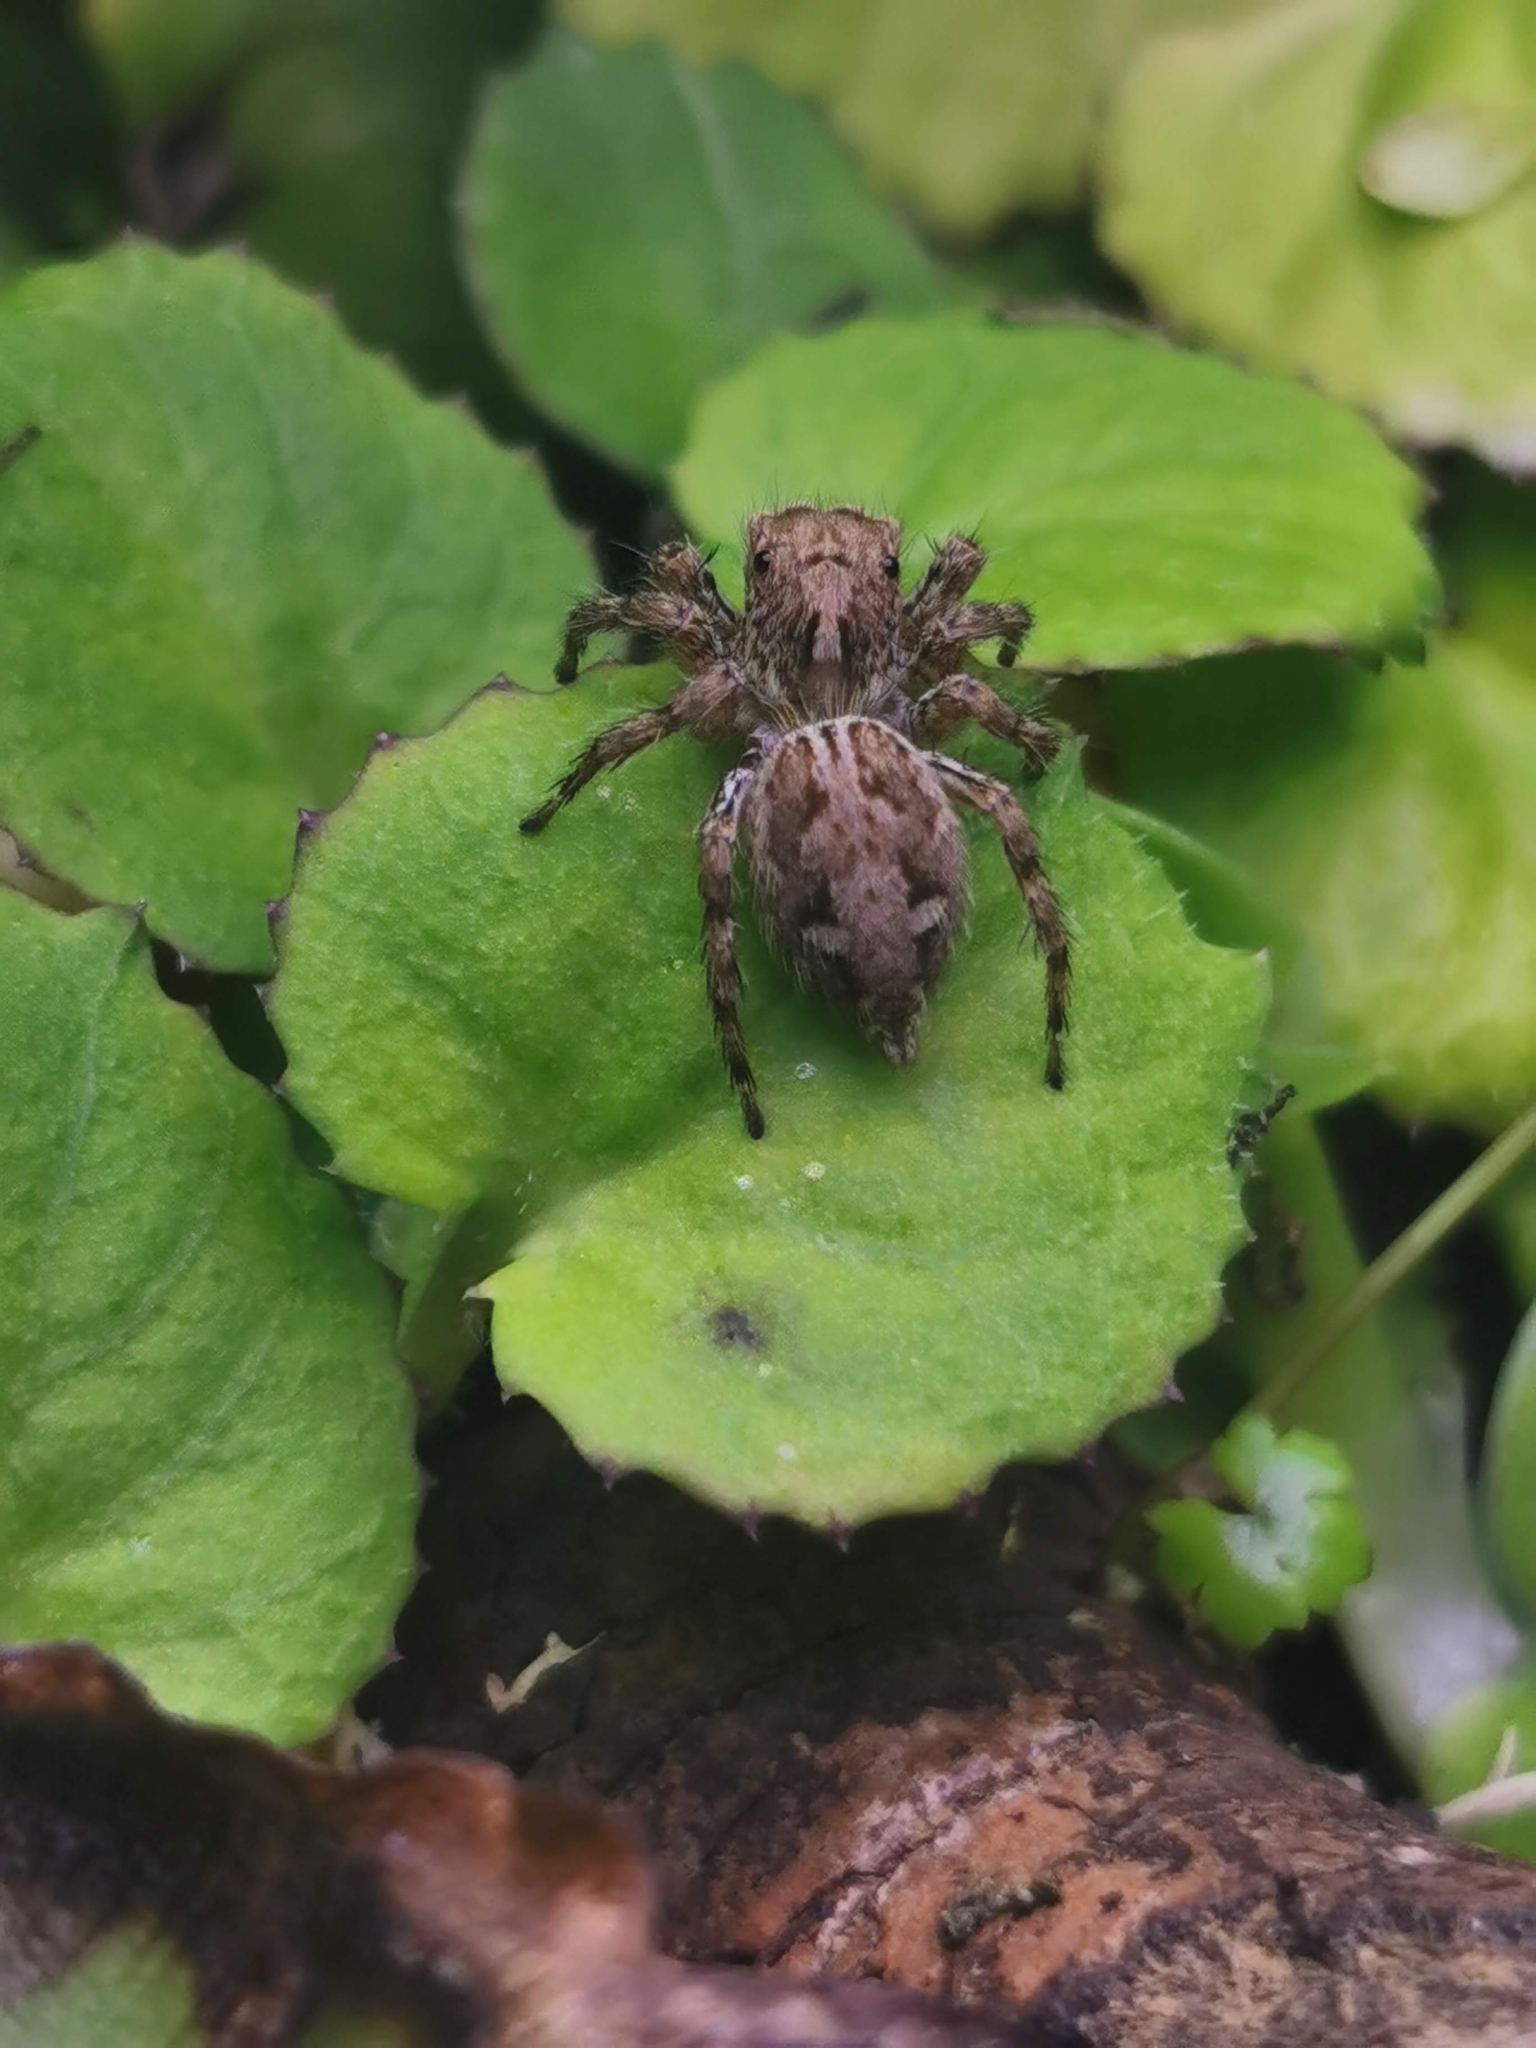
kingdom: Animalia
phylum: Arthropoda
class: Arachnida
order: Araneae
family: Salticidae
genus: Plexippus
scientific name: Plexippus petersi
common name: Jumping spider
